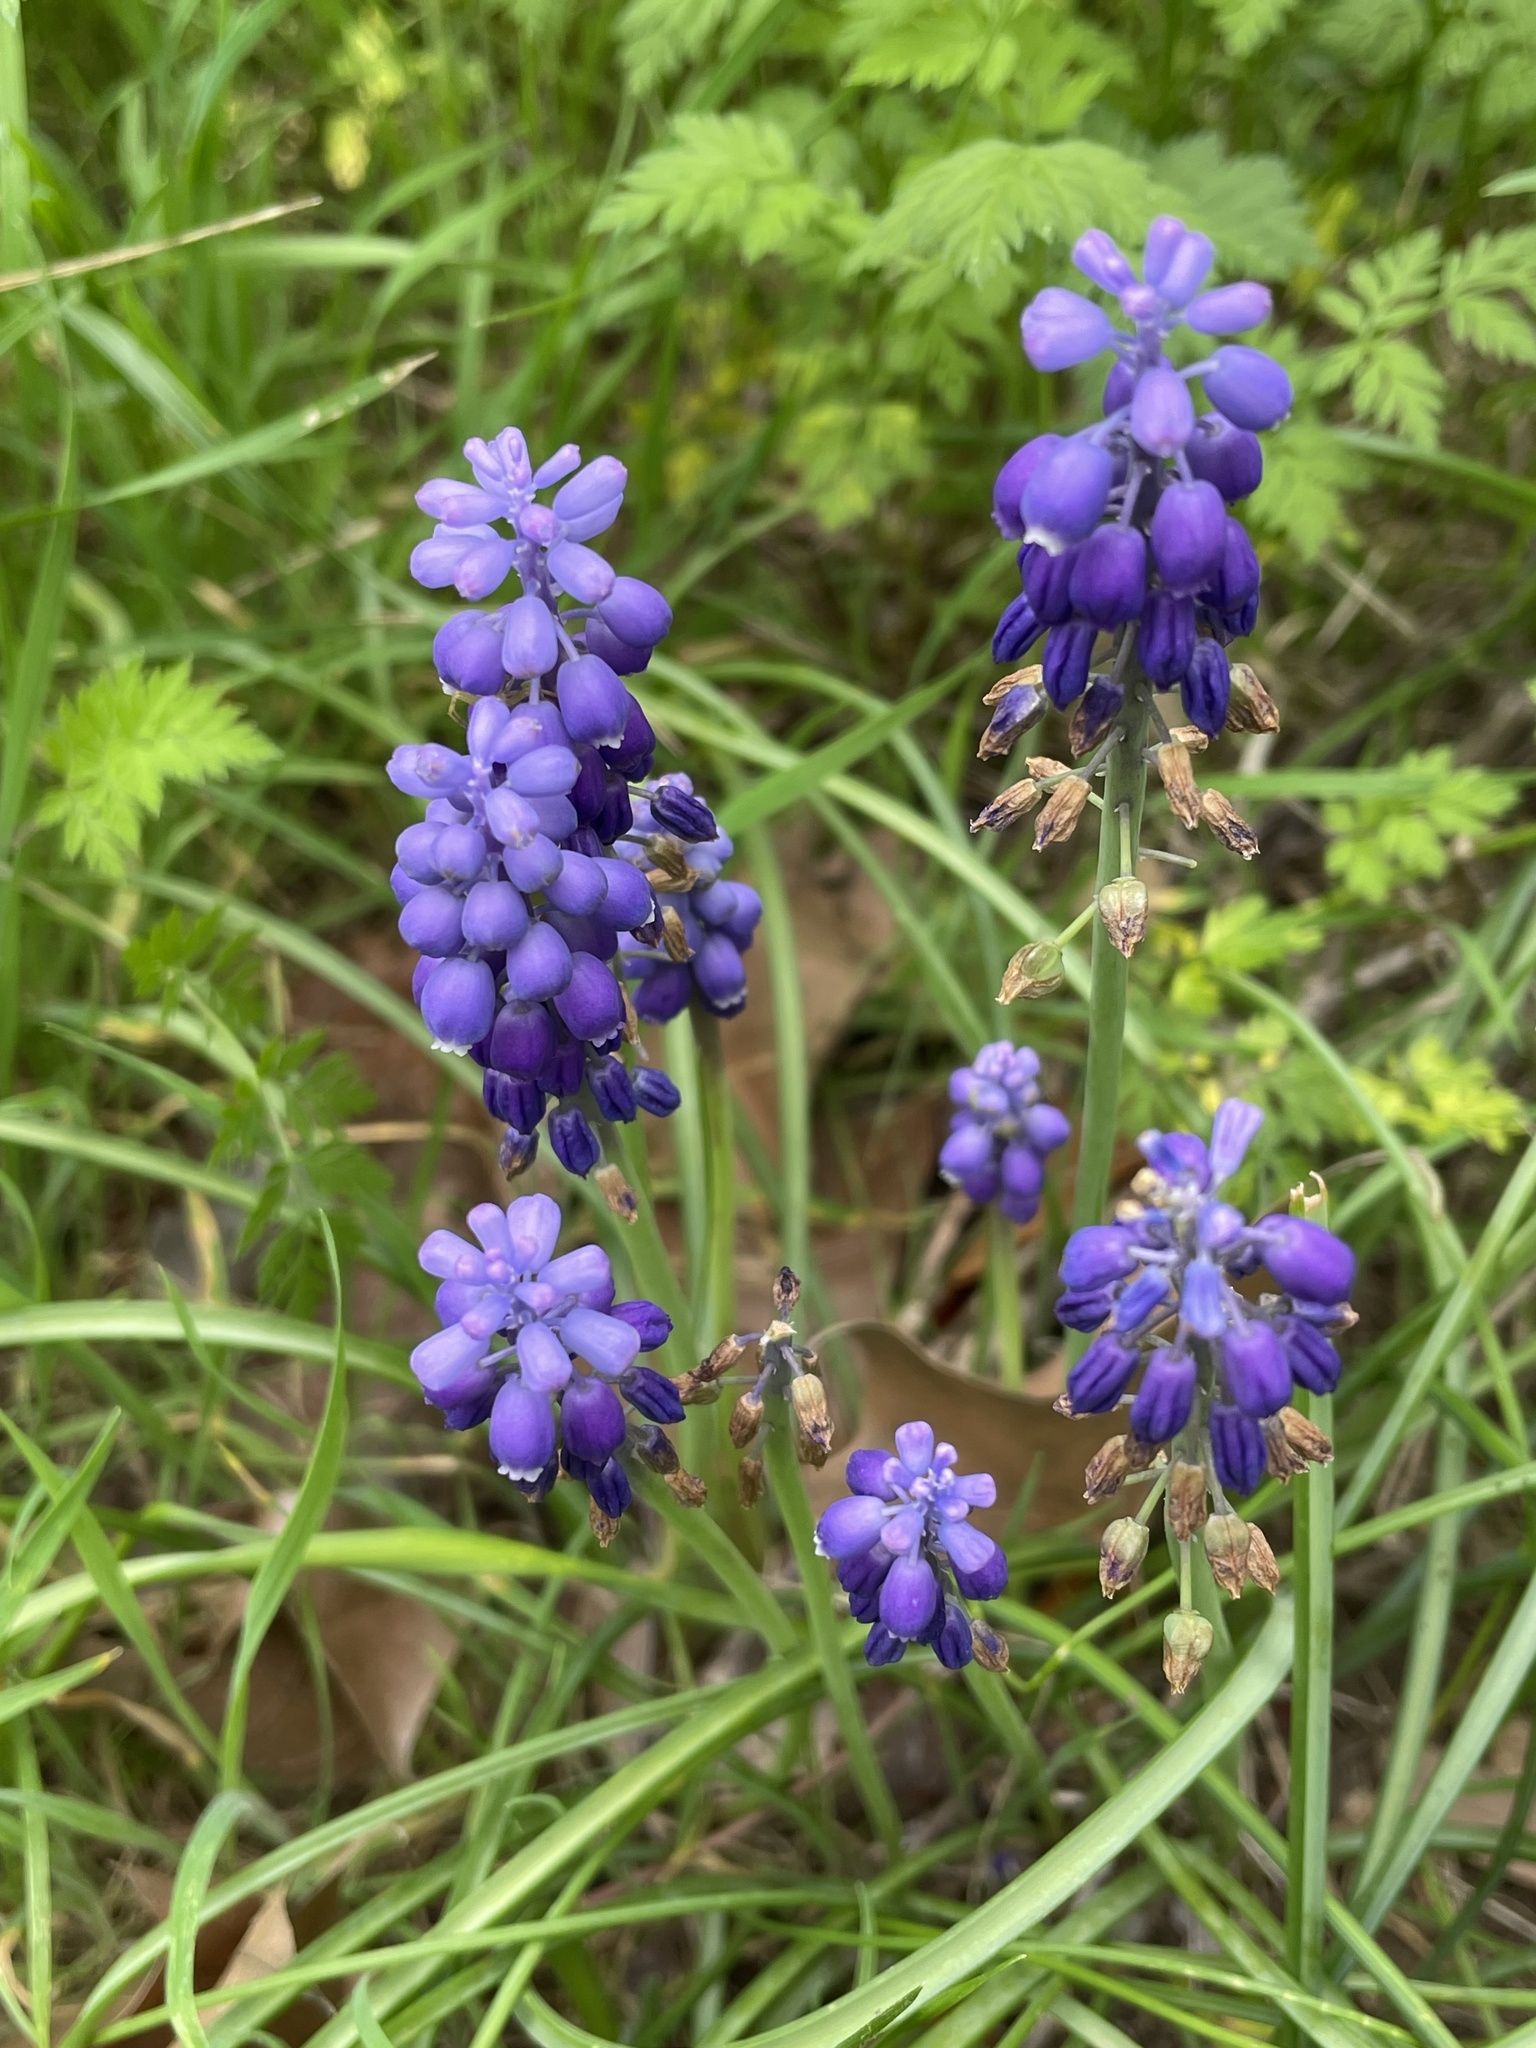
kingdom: Plantae
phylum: Tracheophyta
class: Liliopsida
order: Asparagales
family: Asparagaceae
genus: Muscari
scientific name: Muscari neglectum
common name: Grape-hyacinth
